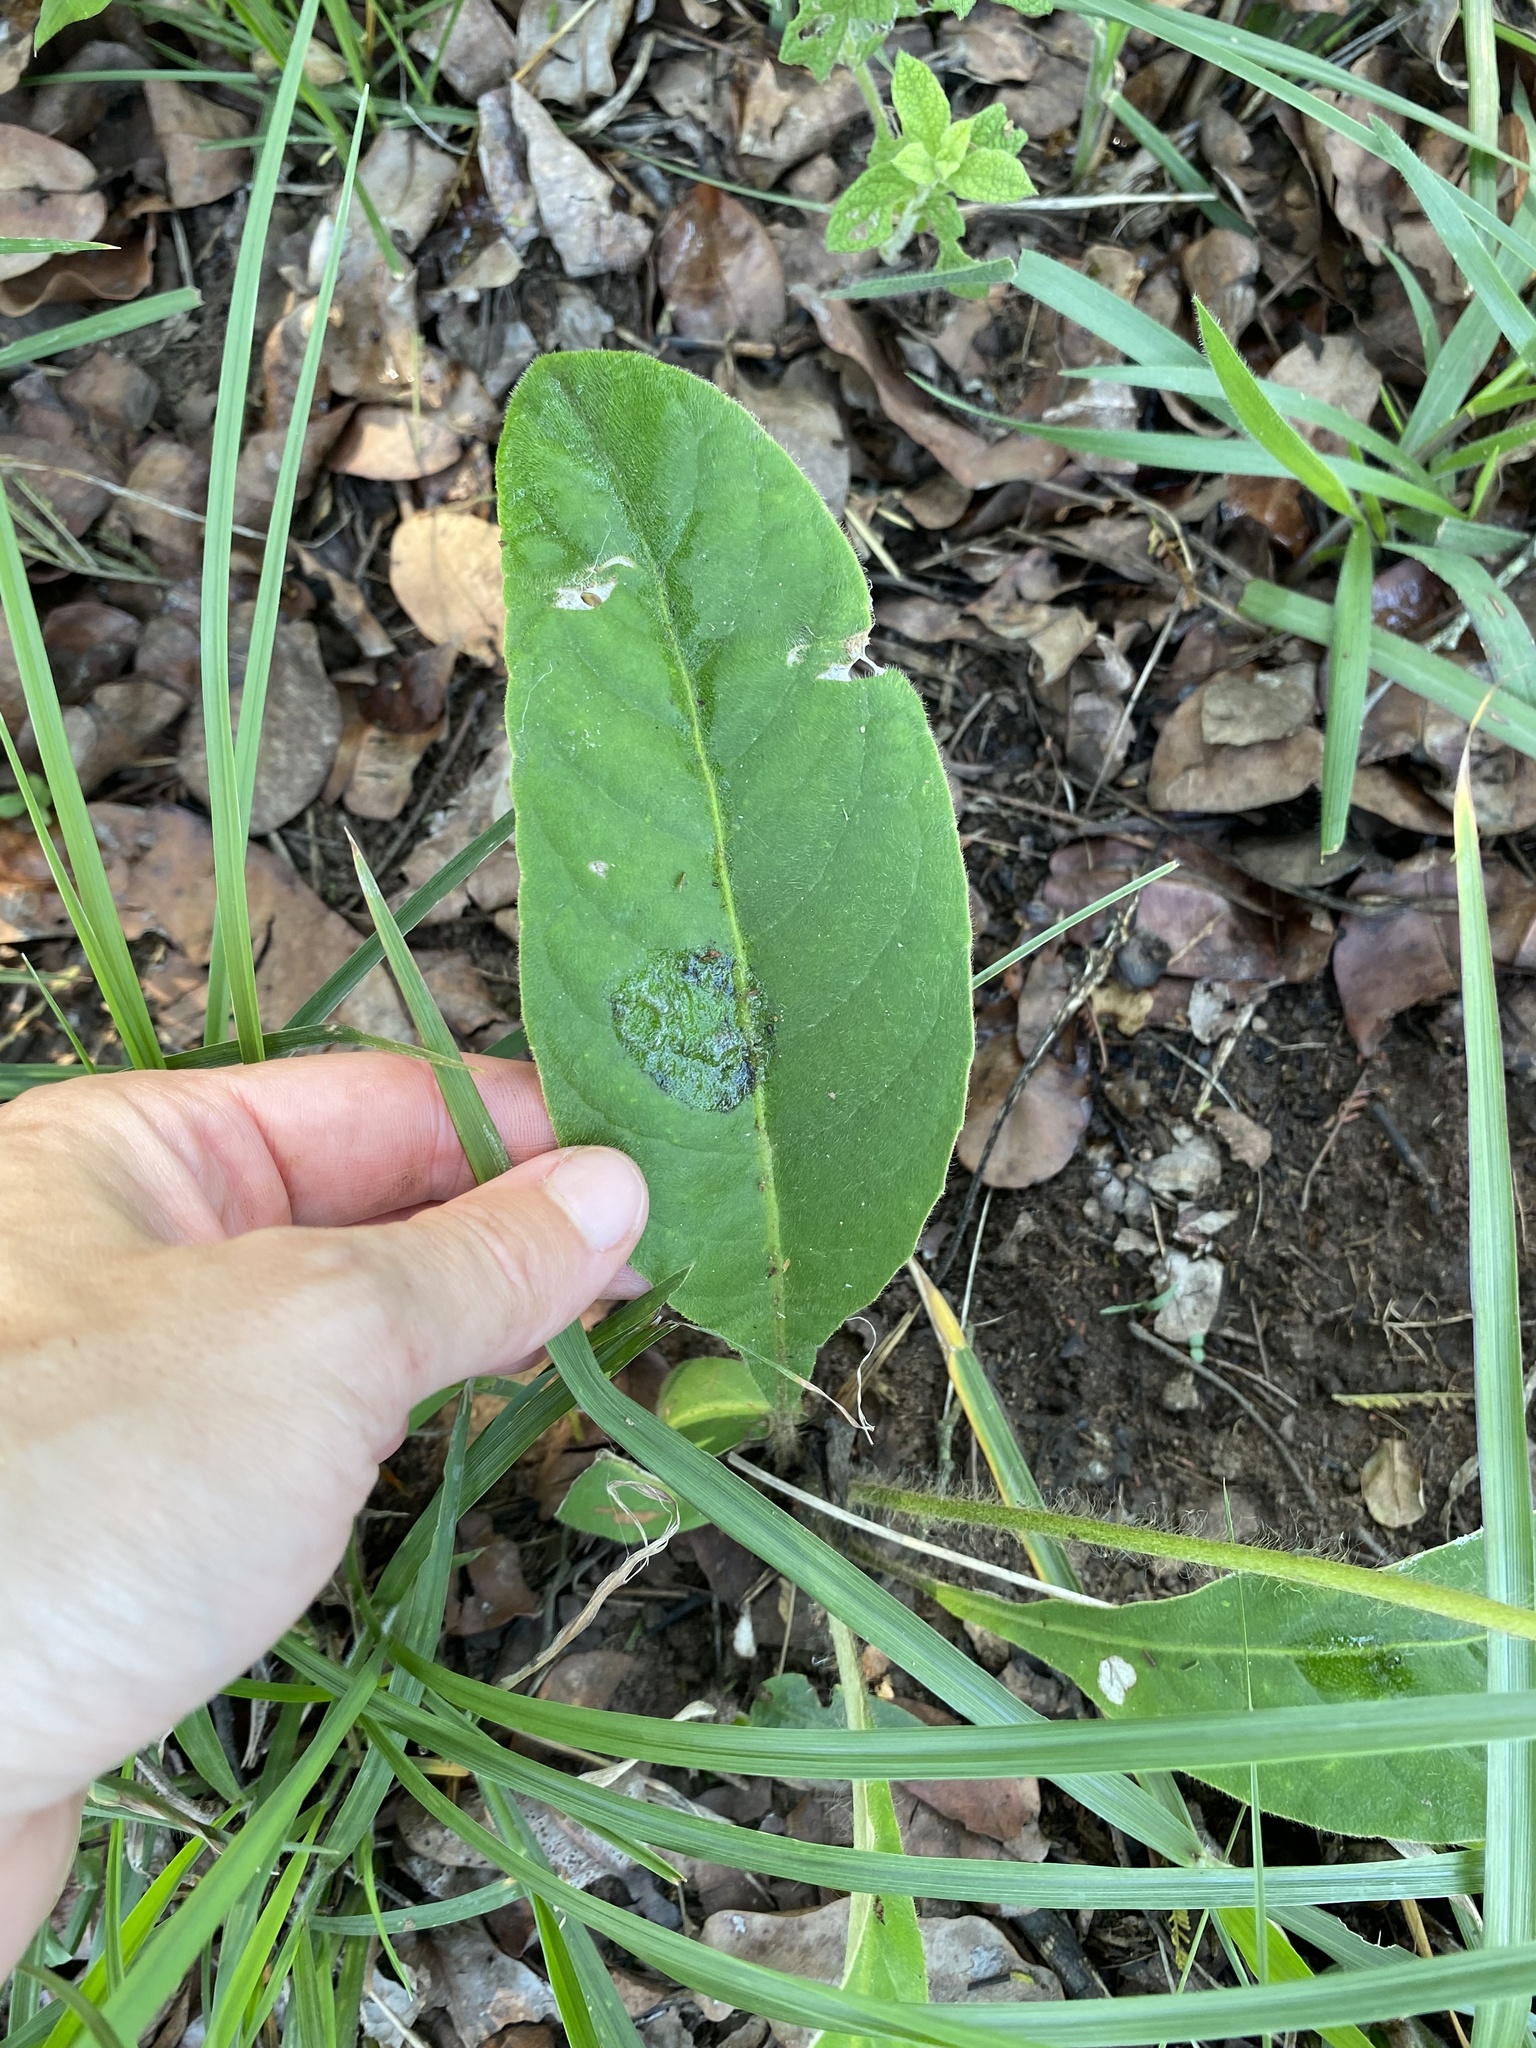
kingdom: Plantae
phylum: Tracheophyta
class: Magnoliopsida
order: Asterales
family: Asteraceae
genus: Gerbera
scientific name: Gerbera ambigua
